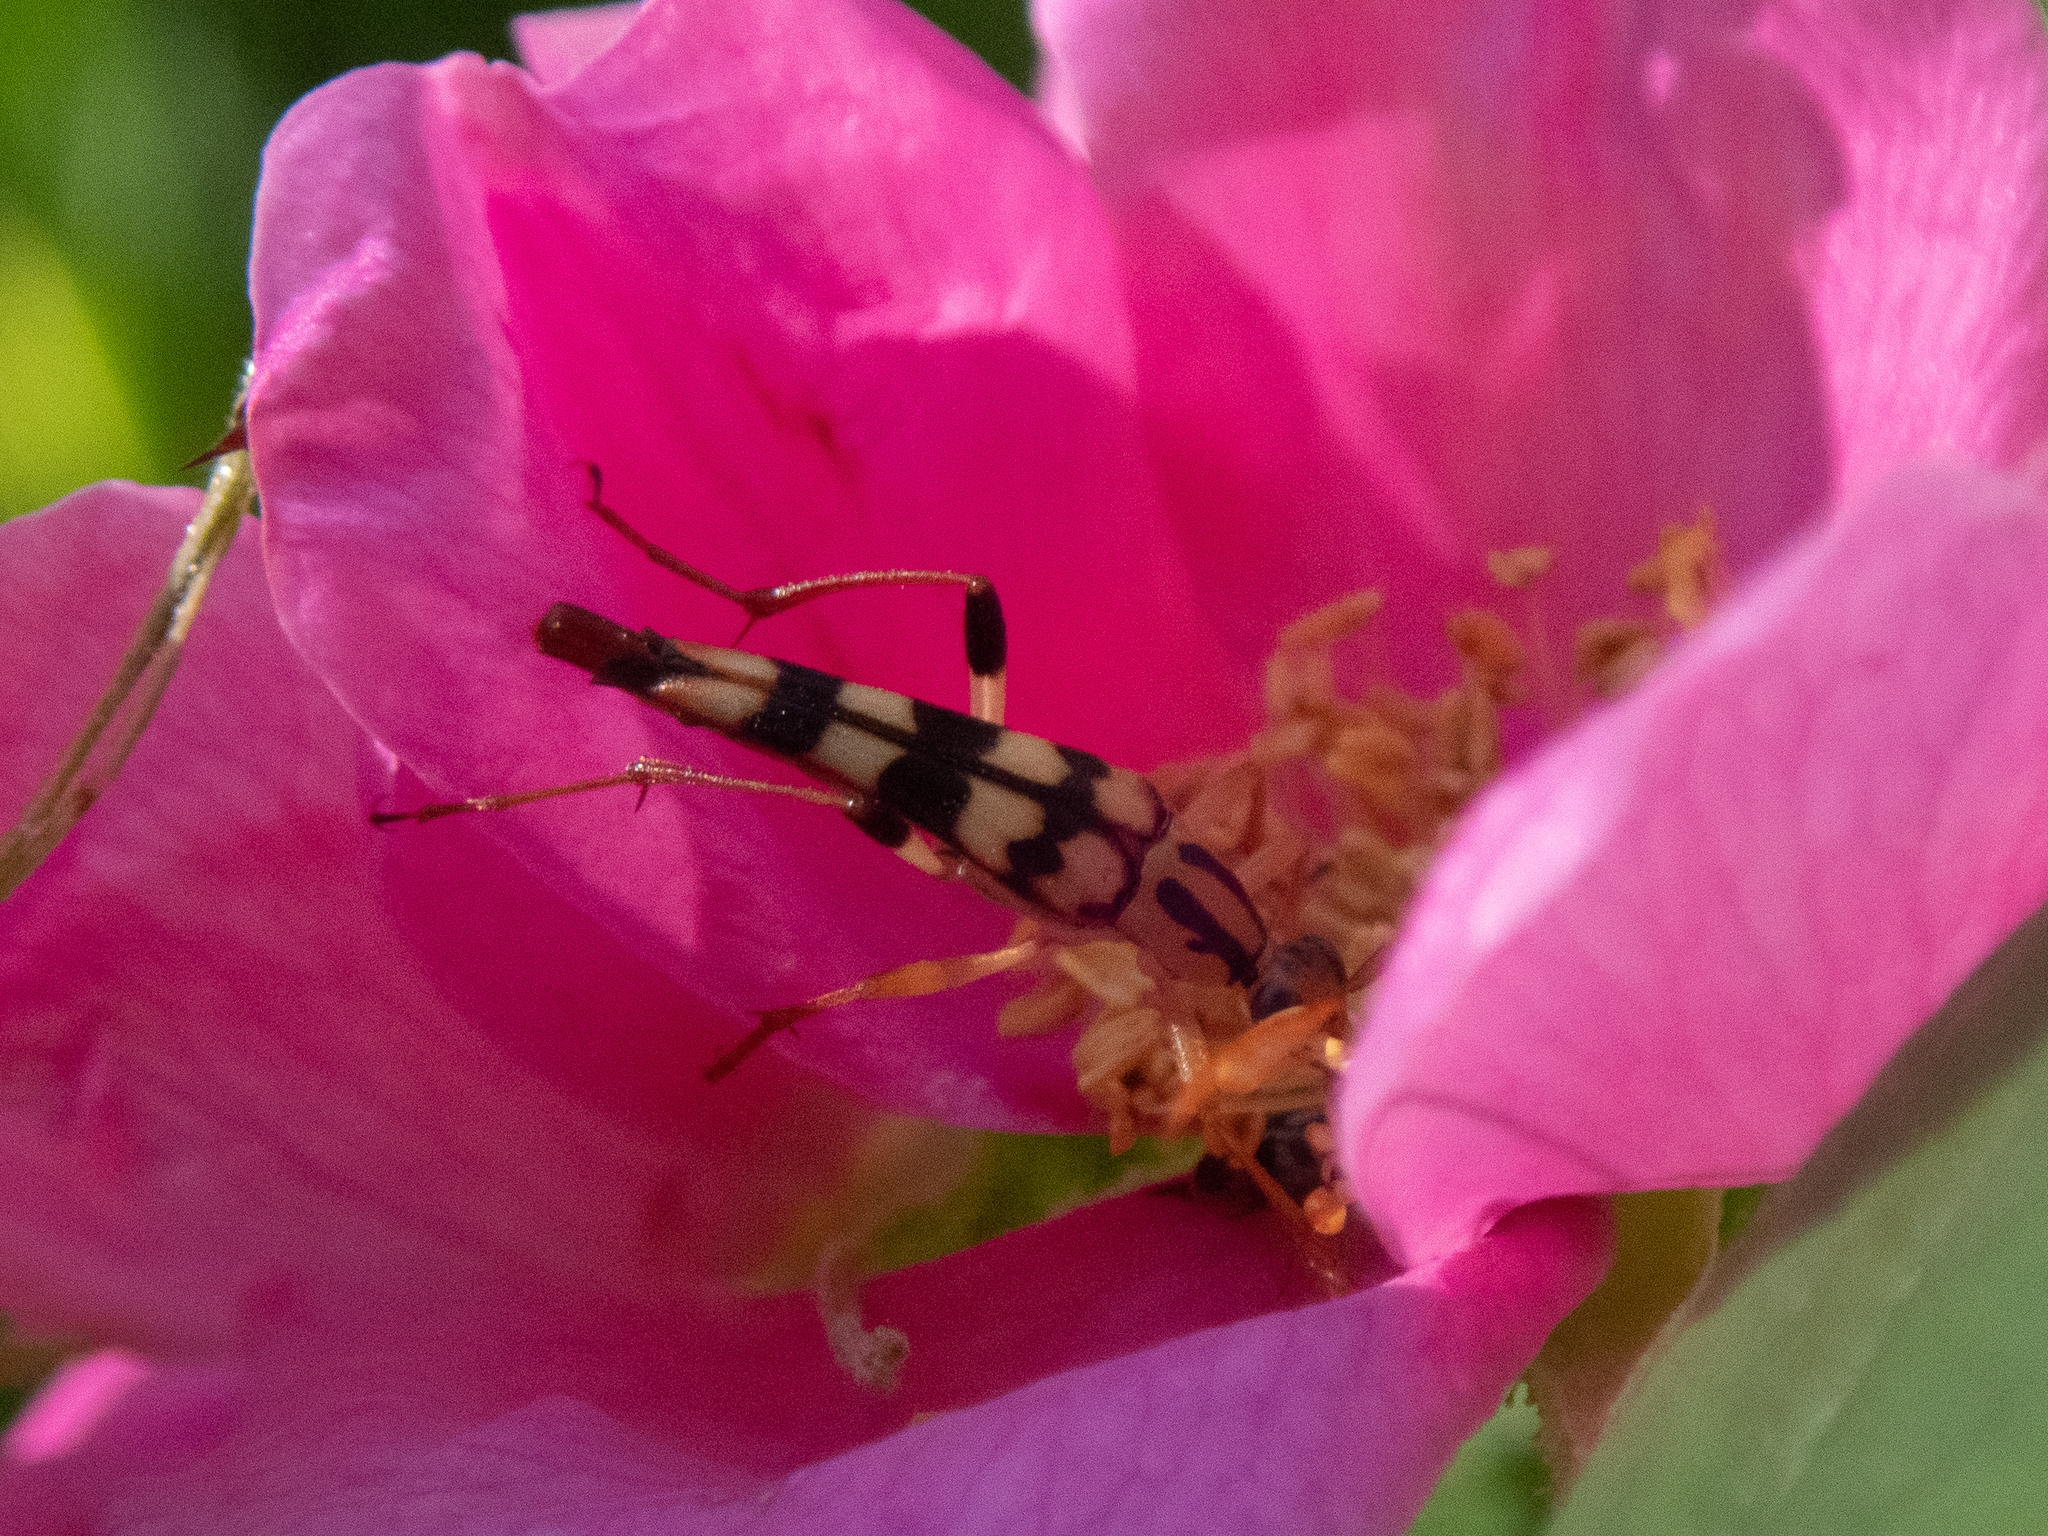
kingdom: Animalia
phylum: Arthropoda
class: Insecta
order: Coleoptera
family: Cerambycidae
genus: Strangalia
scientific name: Strangalia luteicornis
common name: Yellow-horned flower longhorn beetle
